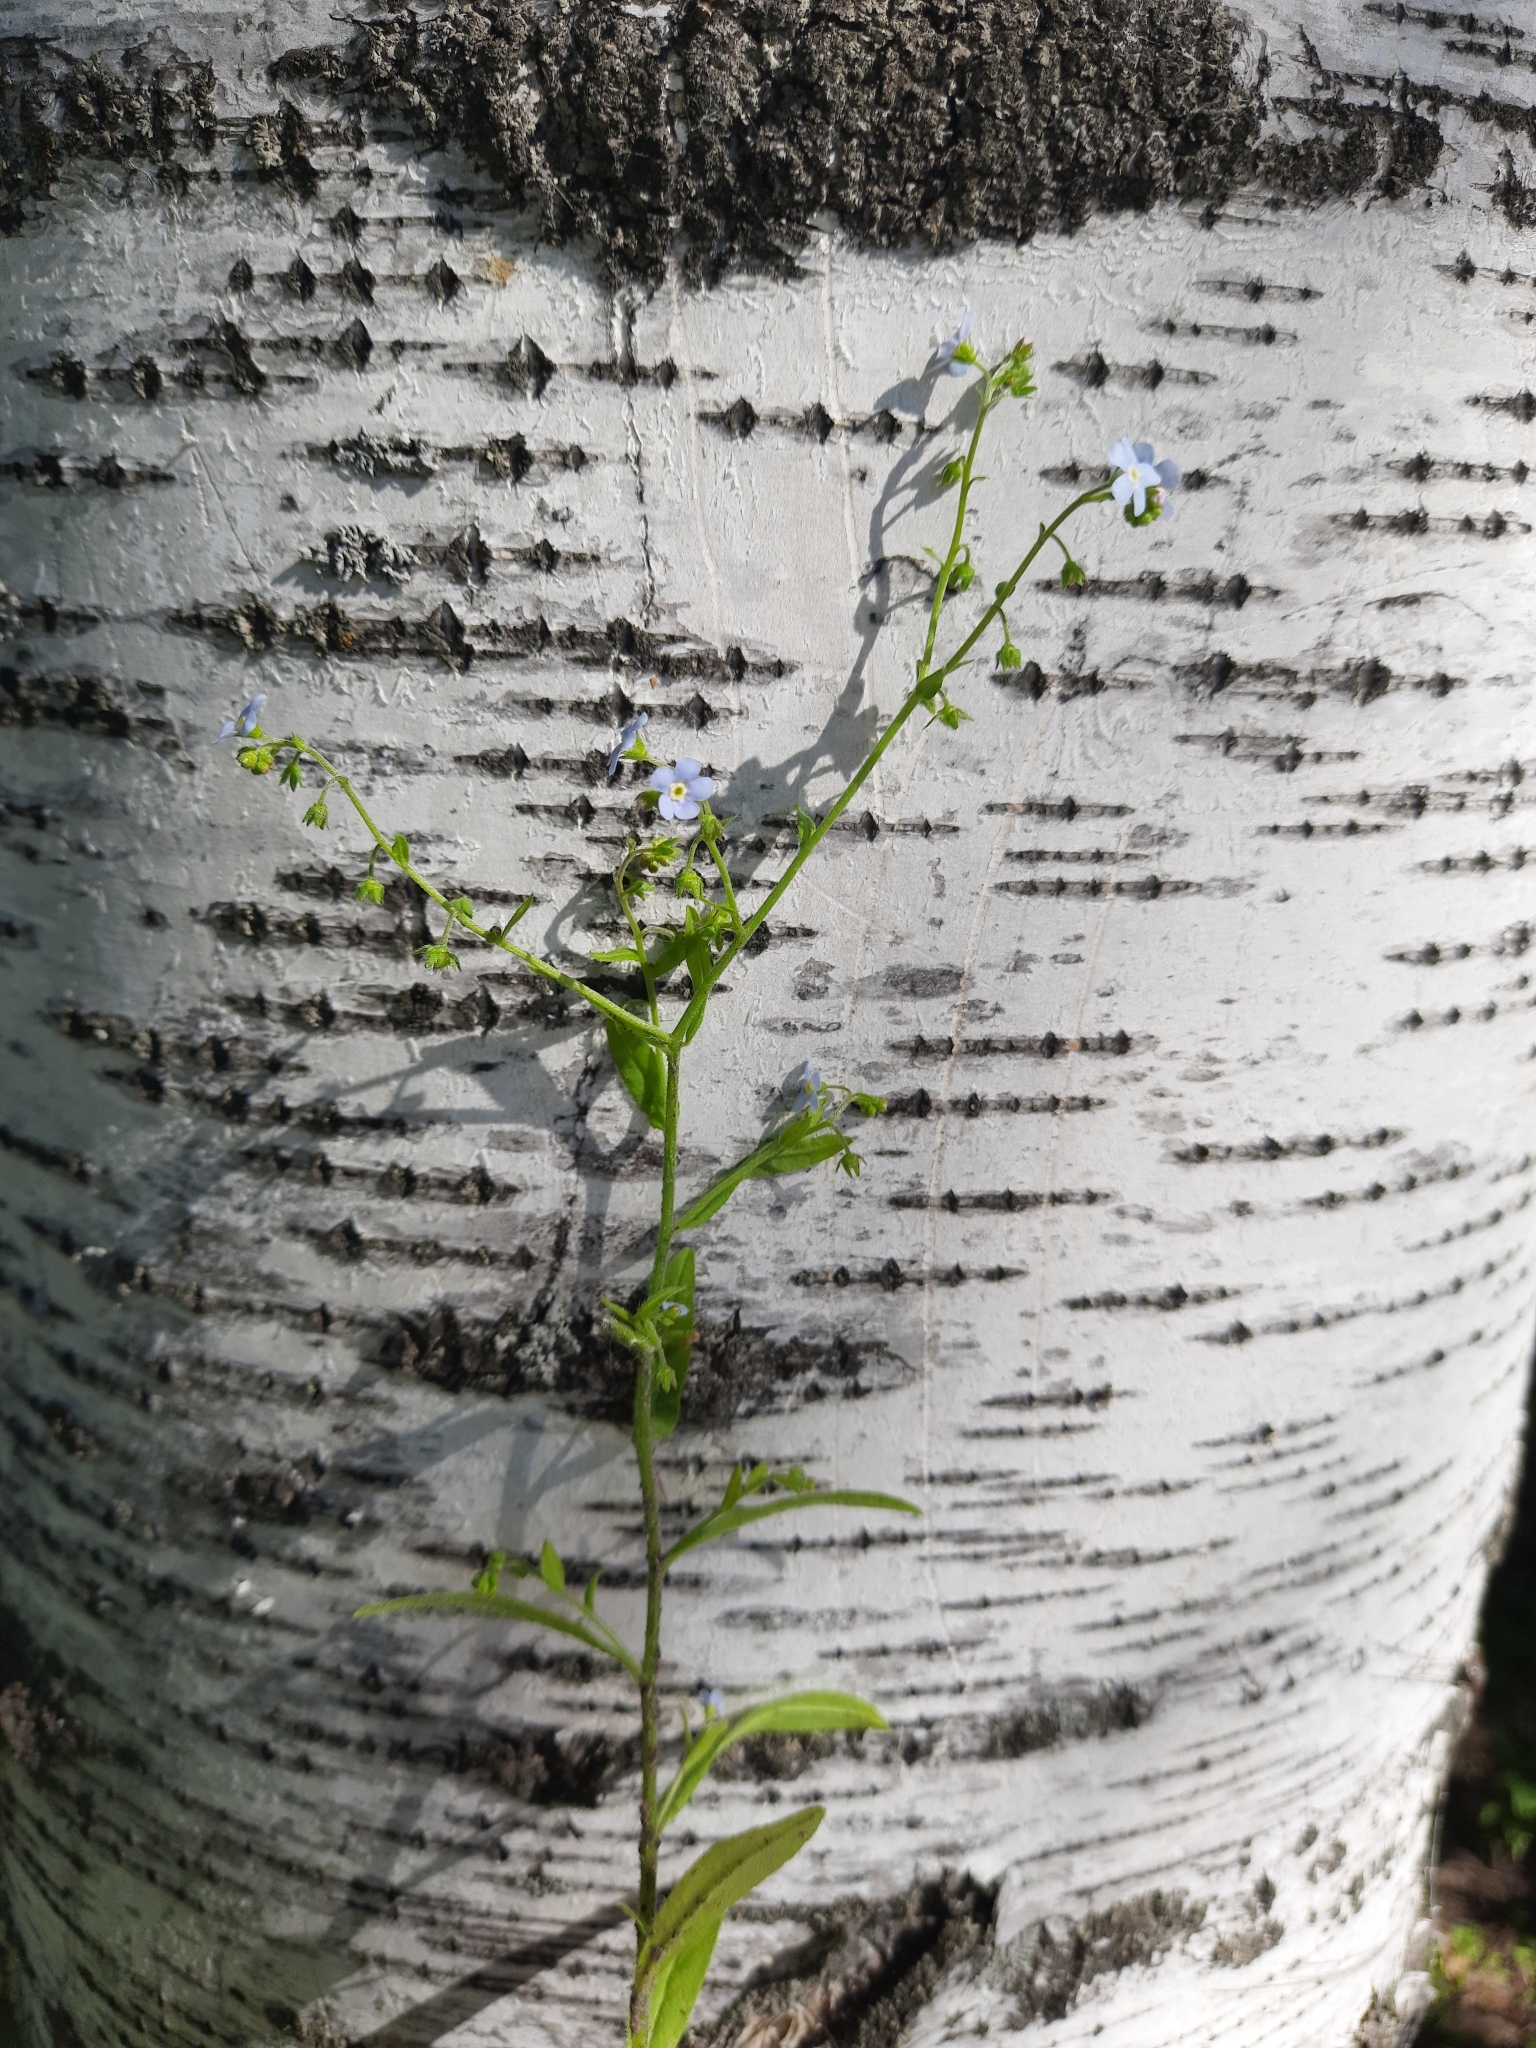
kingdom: Plantae
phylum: Tracheophyta
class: Magnoliopsida
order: Boraginales
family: Boraginaceae
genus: Hackelia
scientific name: Hackelia deflexa
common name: Nodding stickseed
